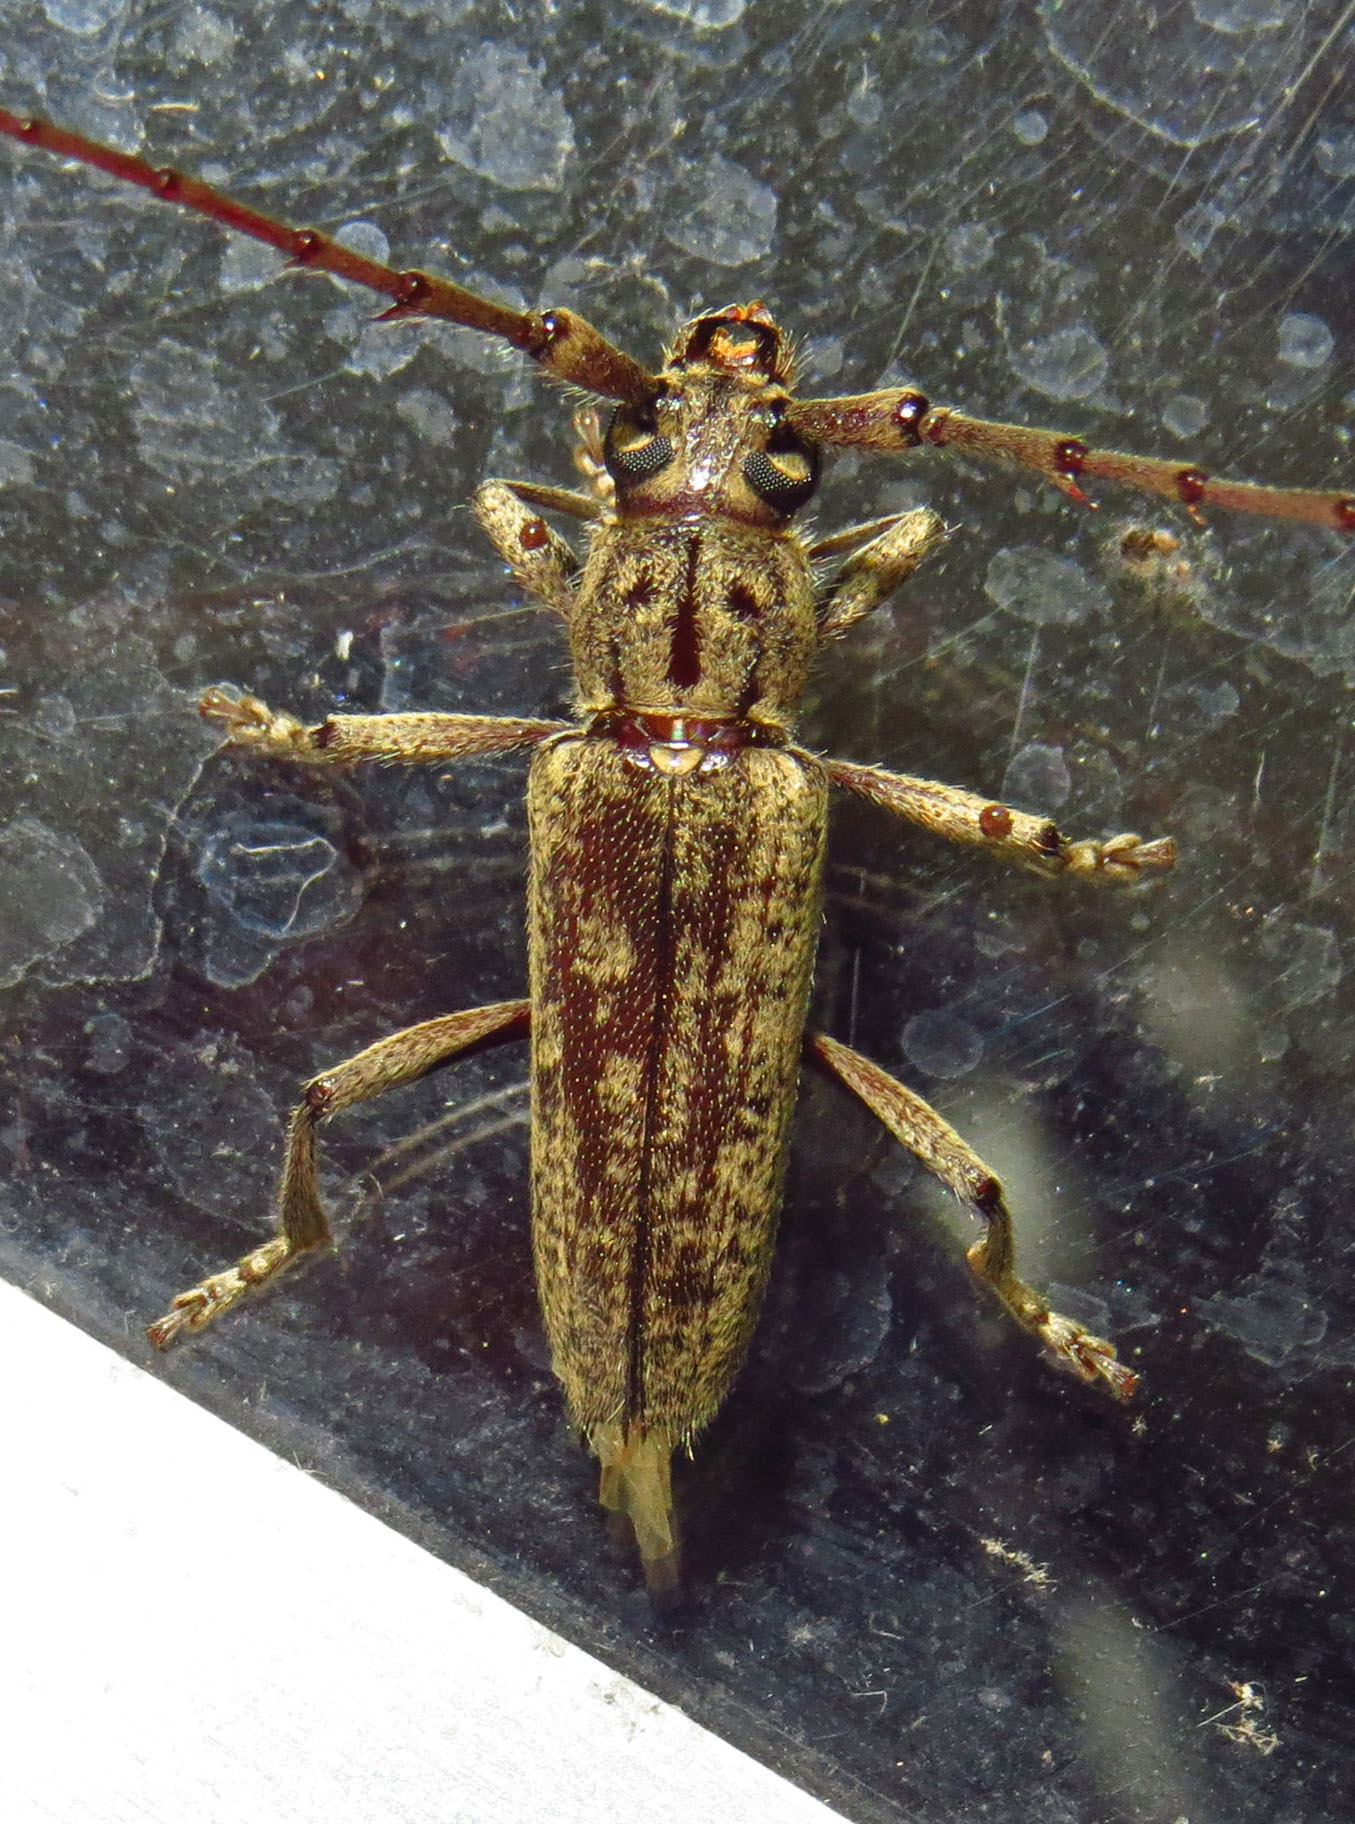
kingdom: Animalia
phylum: Arthropoda
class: Insecta
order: Coleoptera
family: Cerambycidae
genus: Elaphidion
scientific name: Elaphidion mucronatum
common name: Spined oak borer
